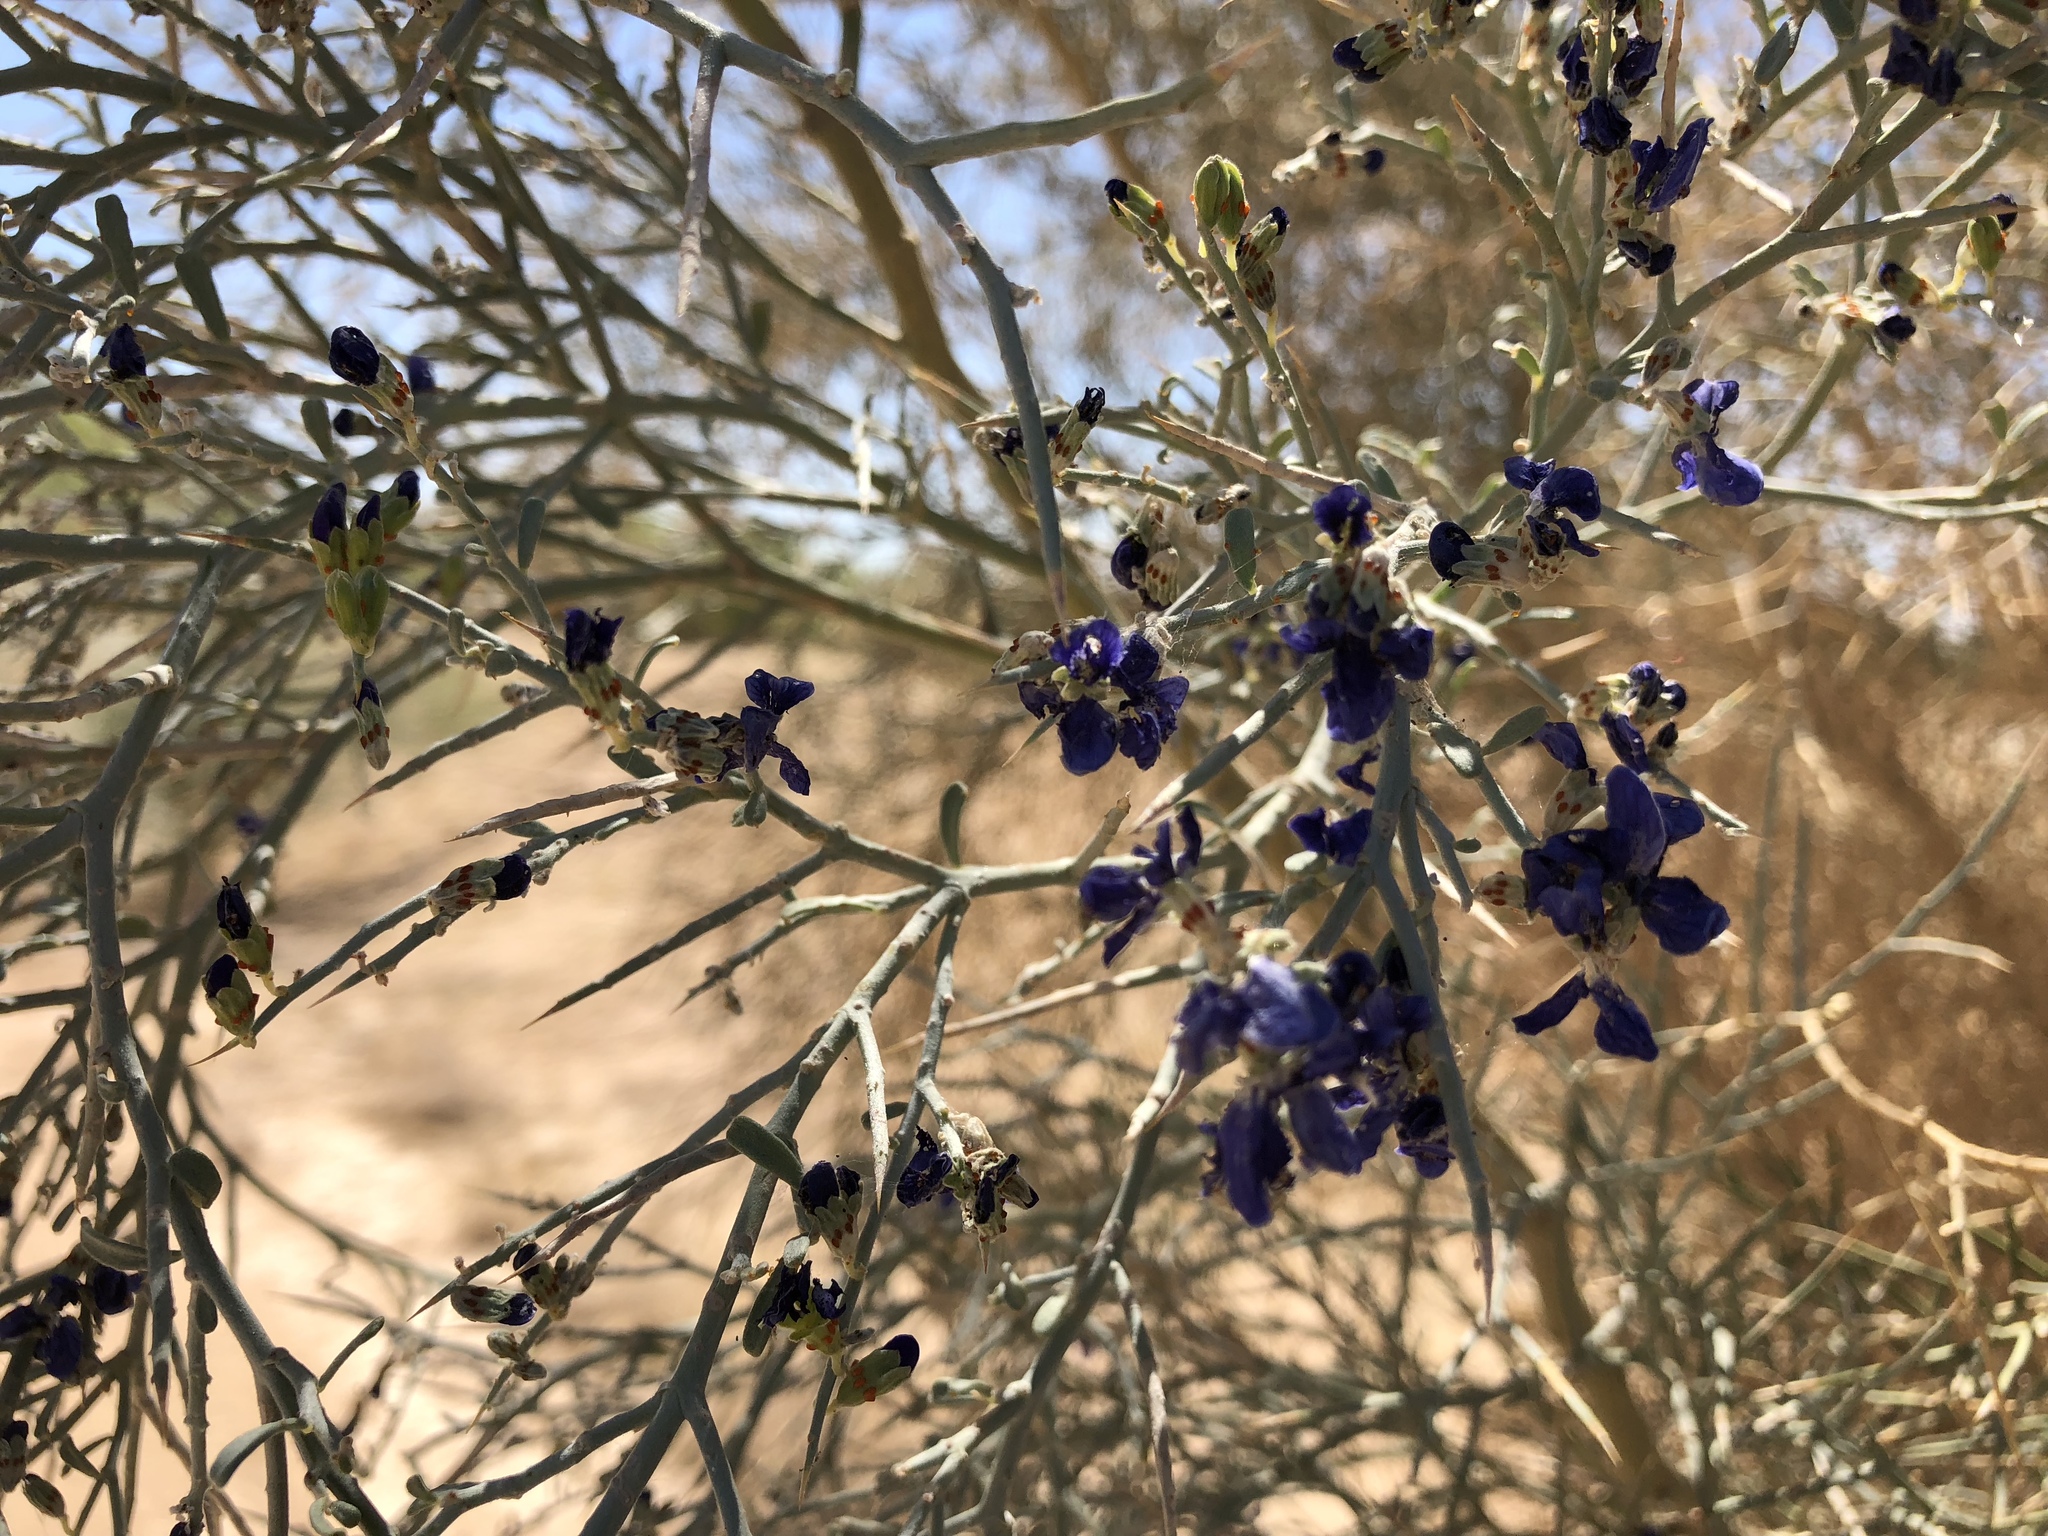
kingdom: Plantae
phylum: Tracheophyta
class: Magnoliopsida
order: Fabales
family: Fabaceae
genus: Psorothamnus
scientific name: Psorothamnus spinosus
